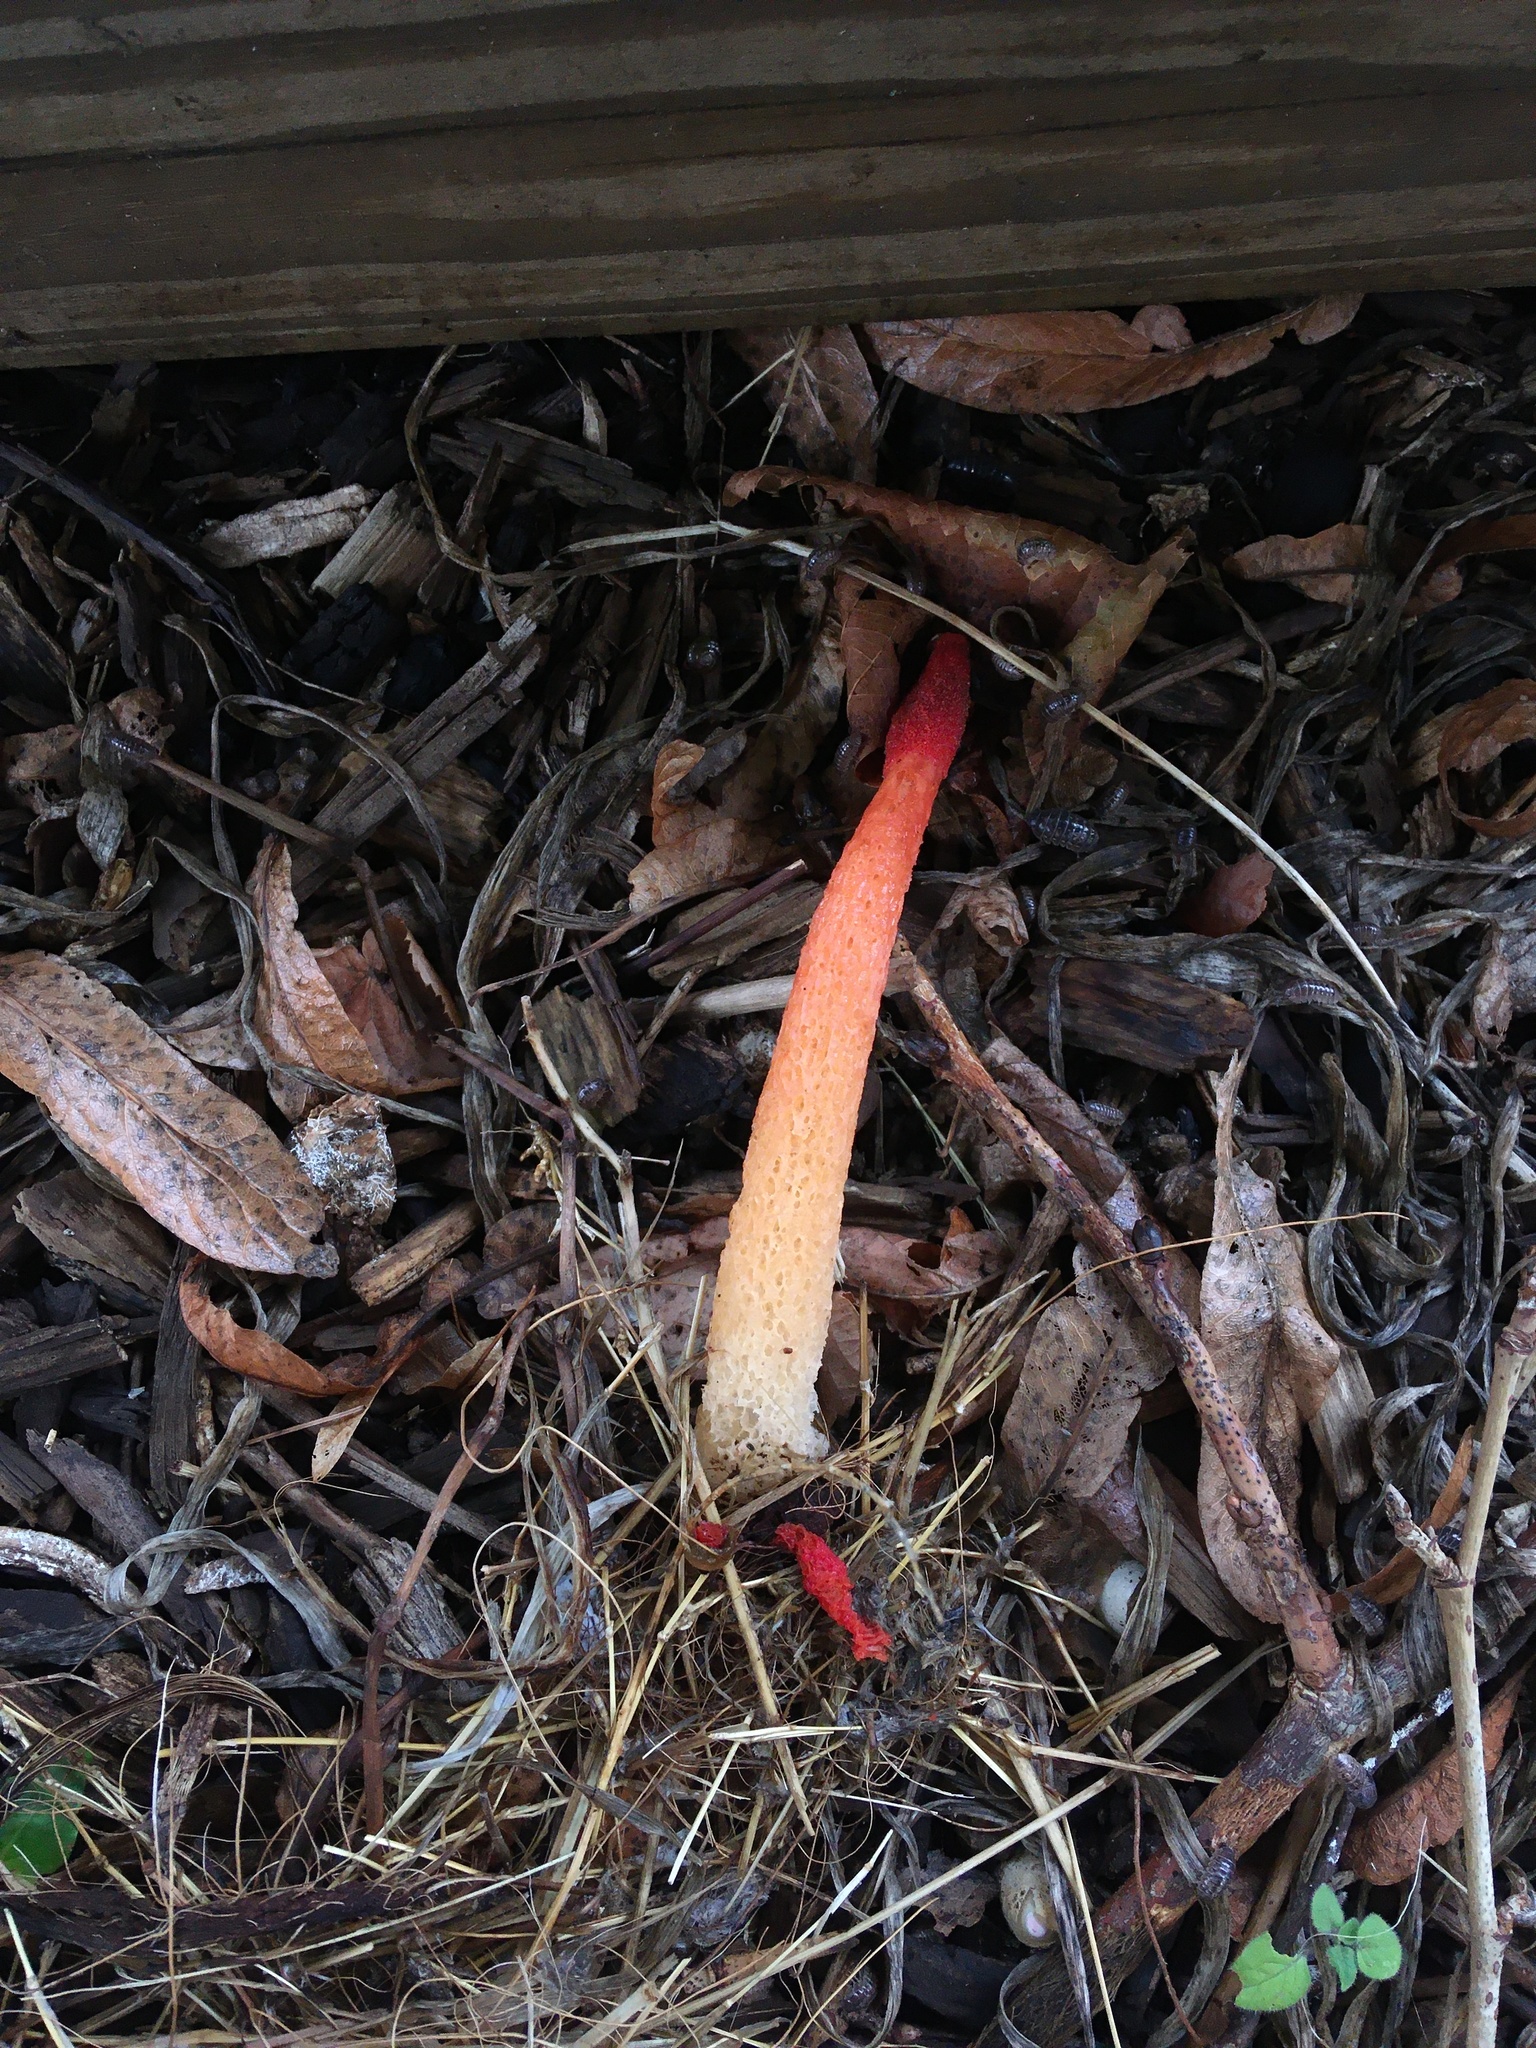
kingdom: Fungi
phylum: Basidiomycota
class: Agaricomycetes
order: Phallales
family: Phallaceae
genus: Phallus
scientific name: Phallus rugulosus
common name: Wrinkly stinkhorn
